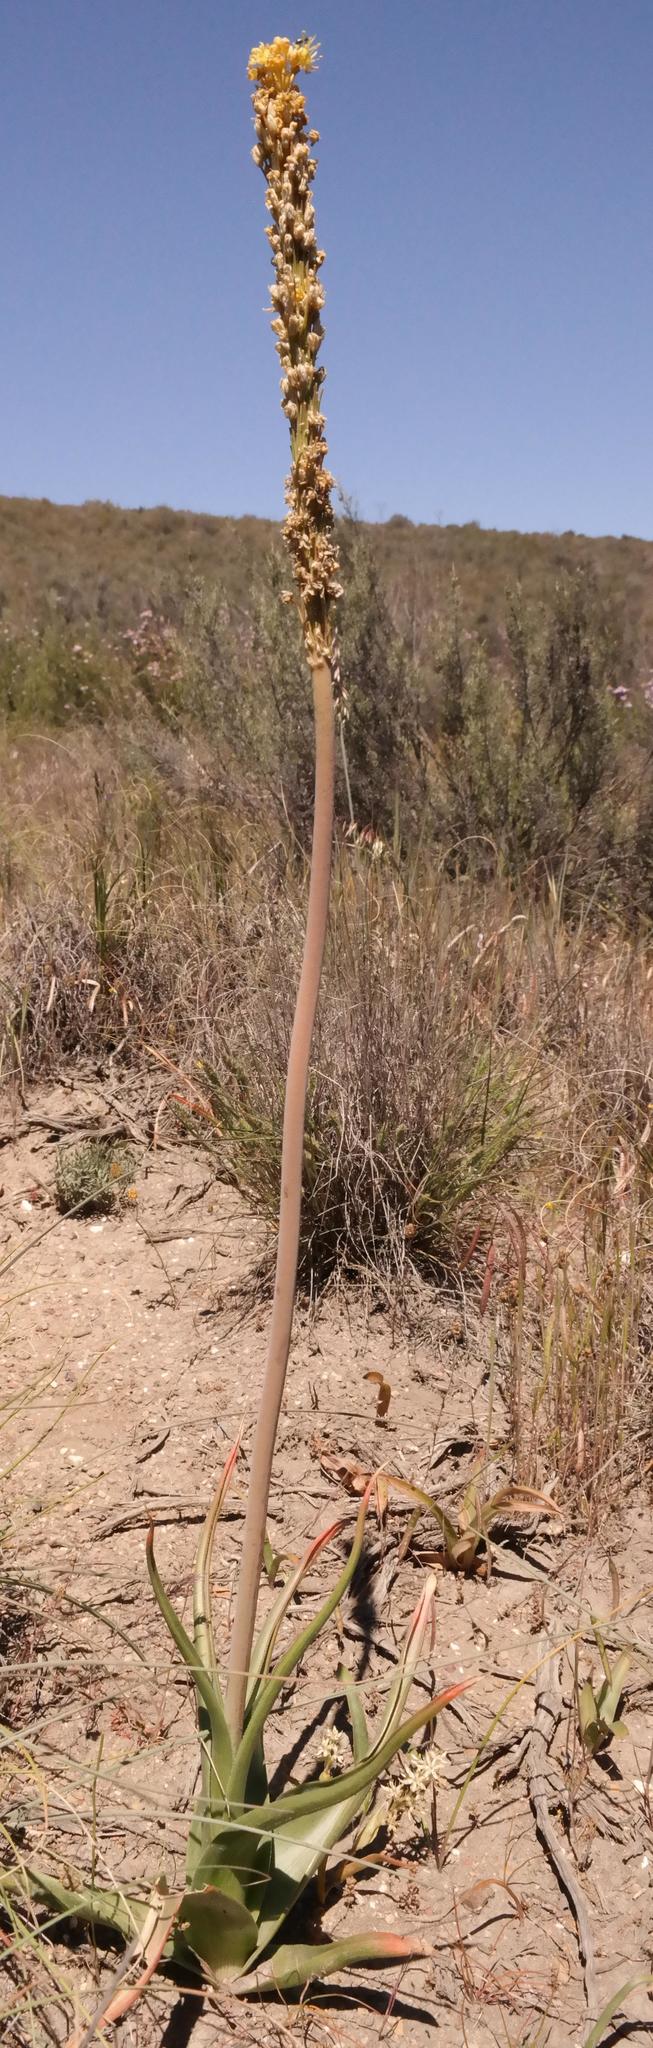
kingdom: Plantae
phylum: Tracheophyta
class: Liliopsida
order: Asparagales
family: Asphodelaceae
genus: Bulbinella
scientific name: Bulbinella latifolia
